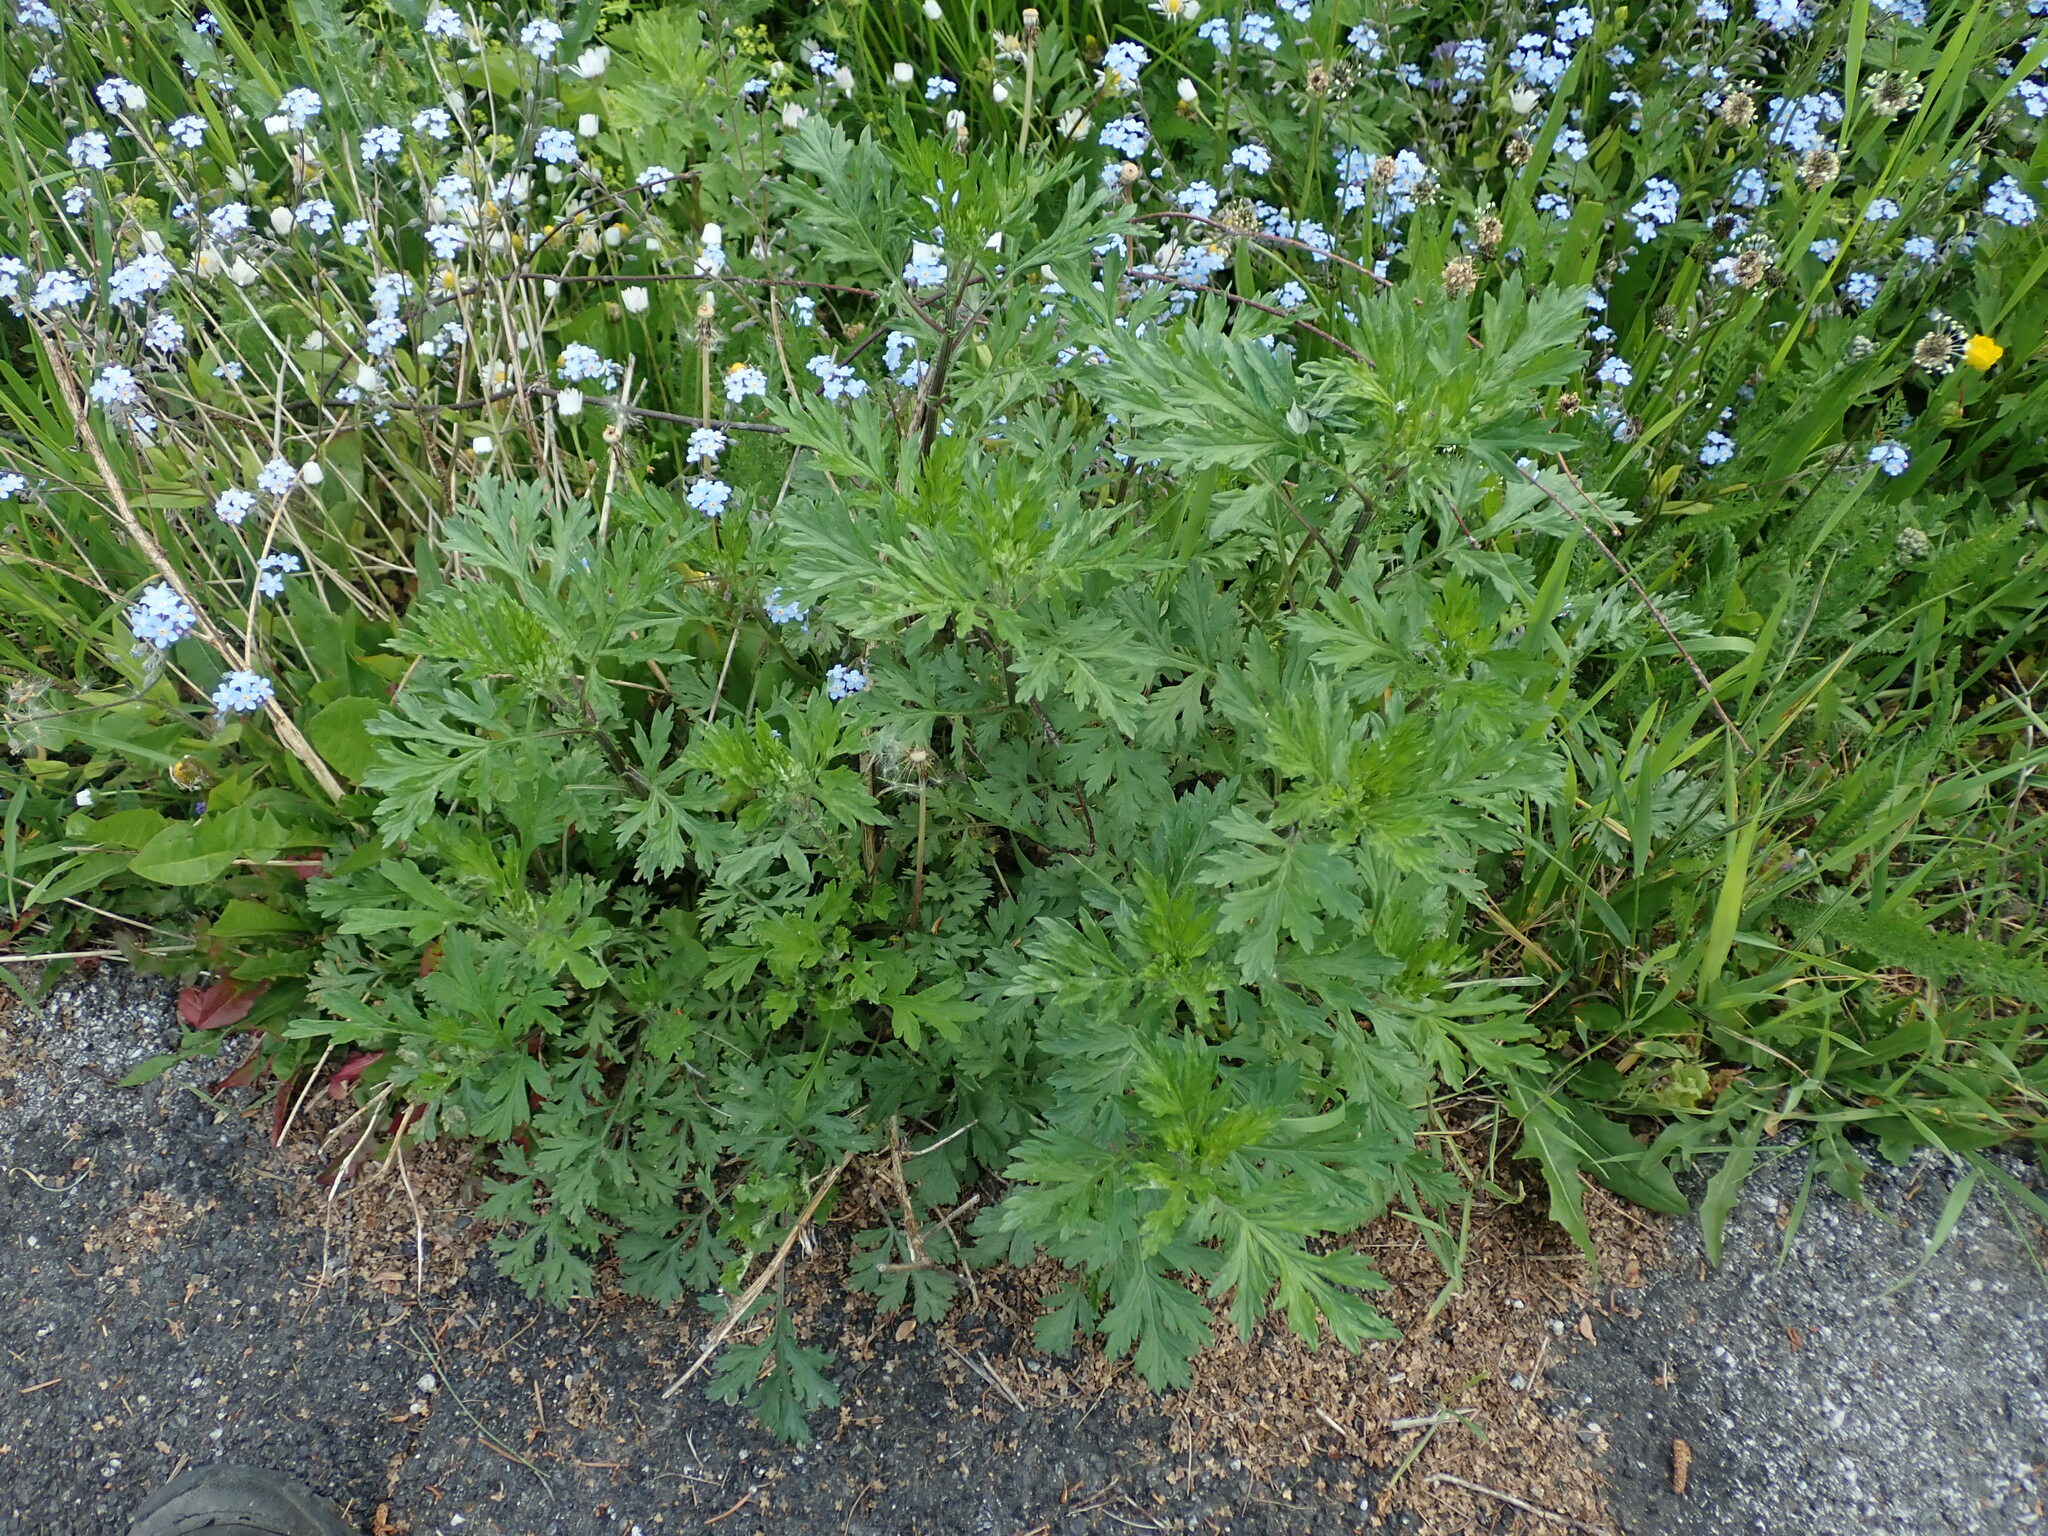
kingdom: Plantae
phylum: Tracheophyta
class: Magnoliopsida
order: Asterales
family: Asteraceae
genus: Artemisia
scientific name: Artemisia vulgaris
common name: Mugwort
